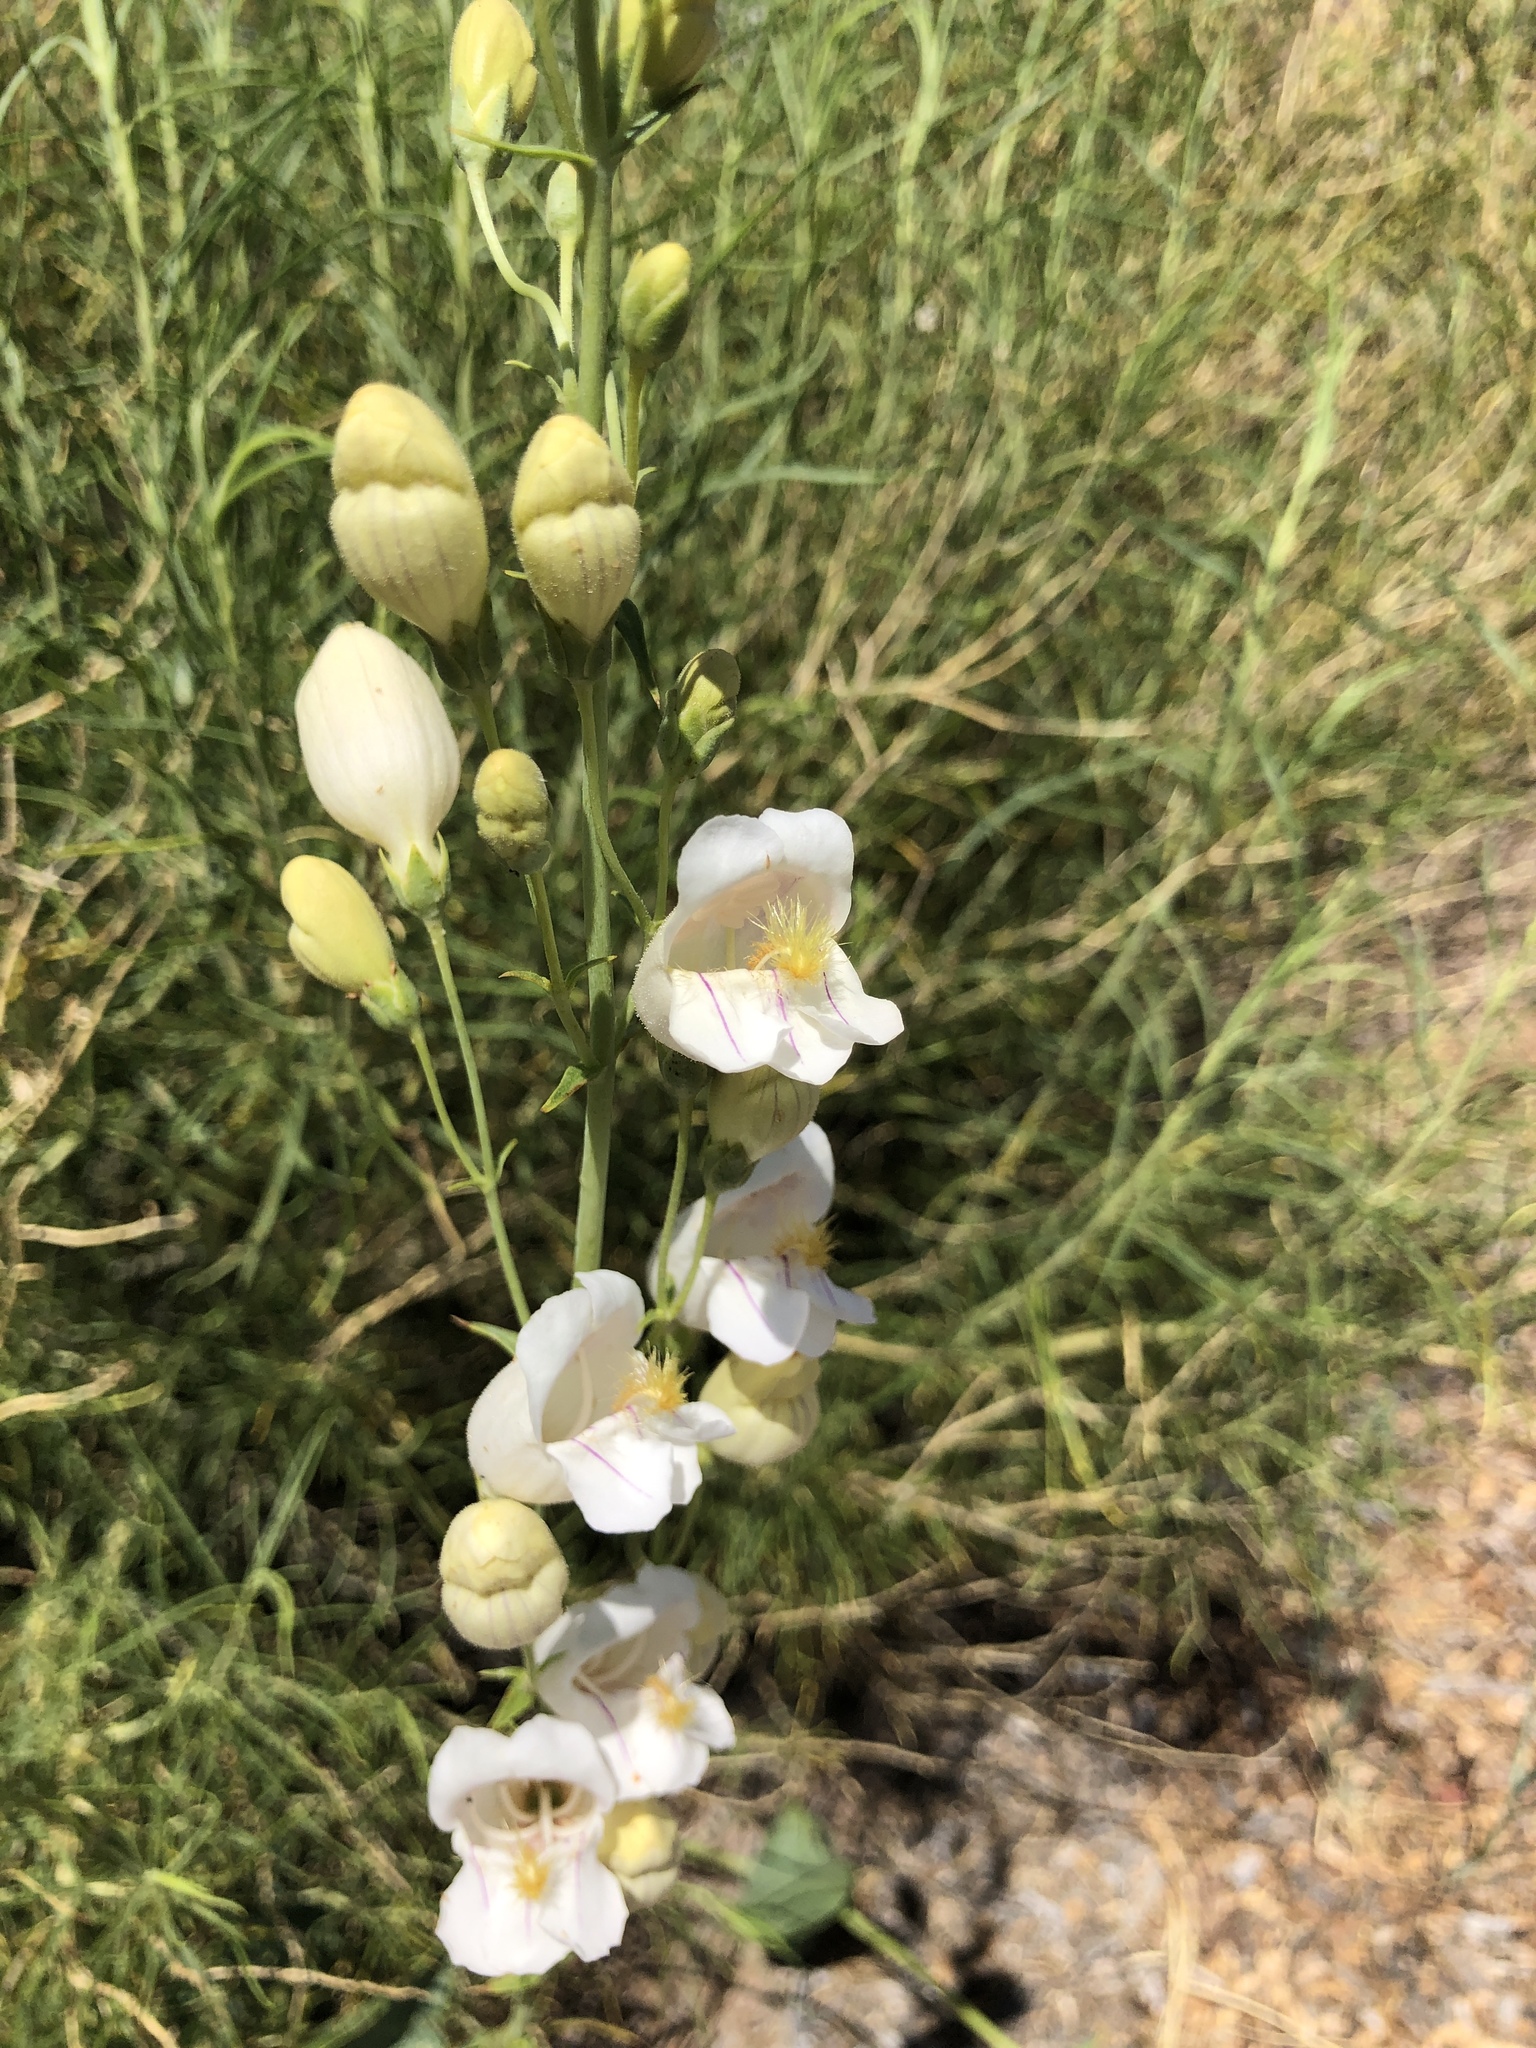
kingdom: Plantae
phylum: Tracheophyta
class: Magnoliopsida
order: Lamiales
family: Plantaginaceae
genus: Penstemon
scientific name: Penstemon palmeri
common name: Palmer penstemon
